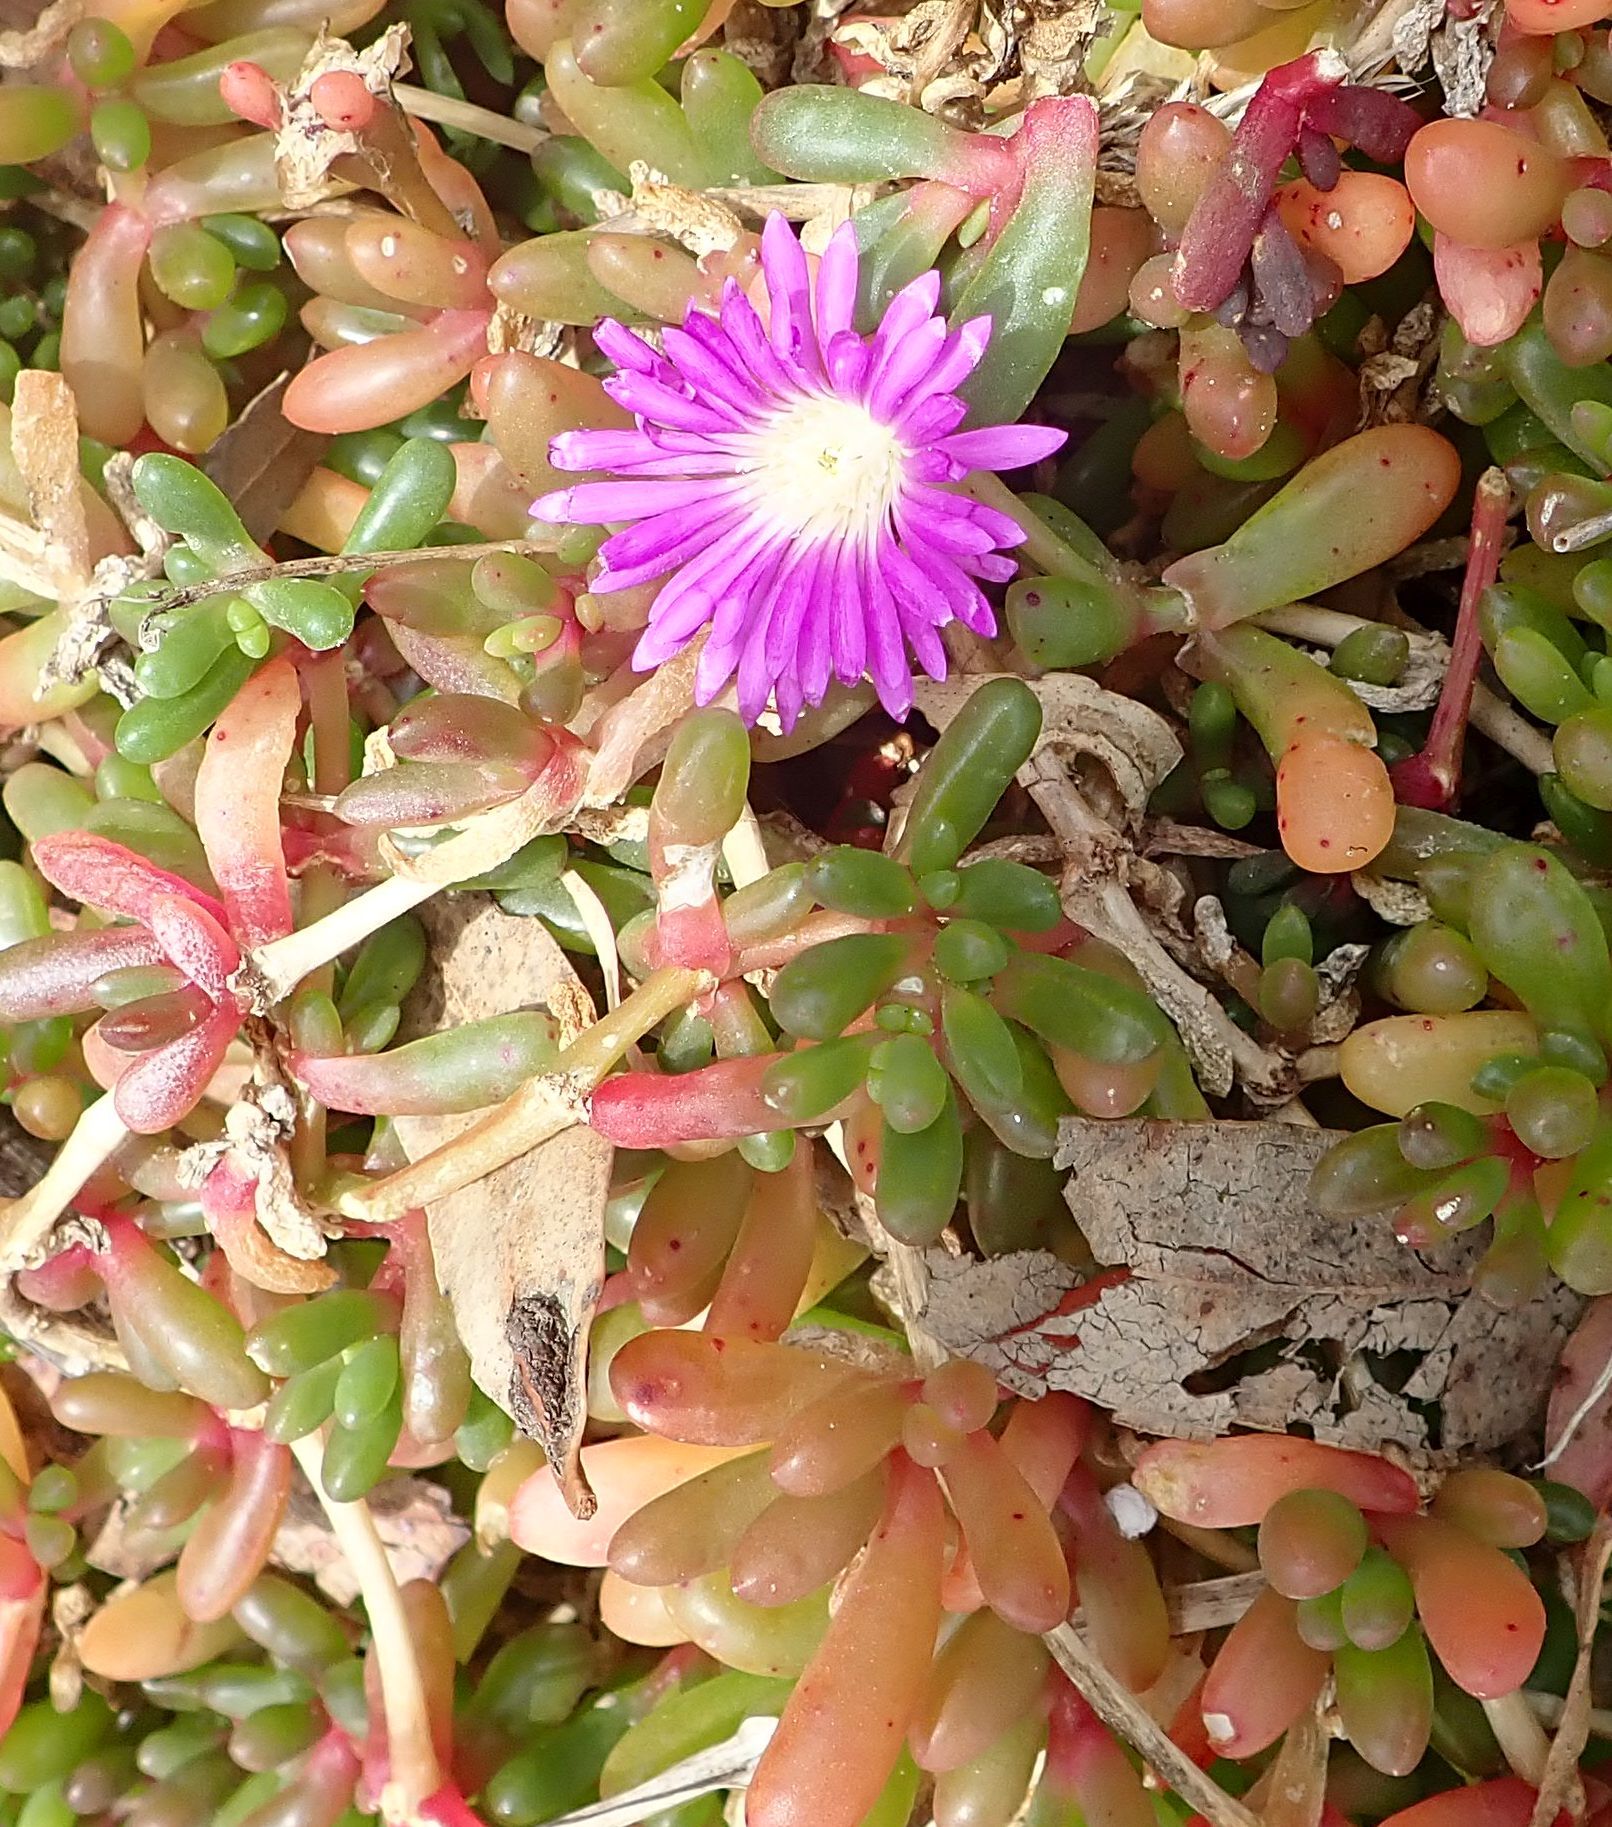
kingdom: Plantae
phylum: Tracheophyta
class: Magnoliopsida
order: Caryophyllales
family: Aizoaceae
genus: Disphyma
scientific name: Disphyma clavellatum
